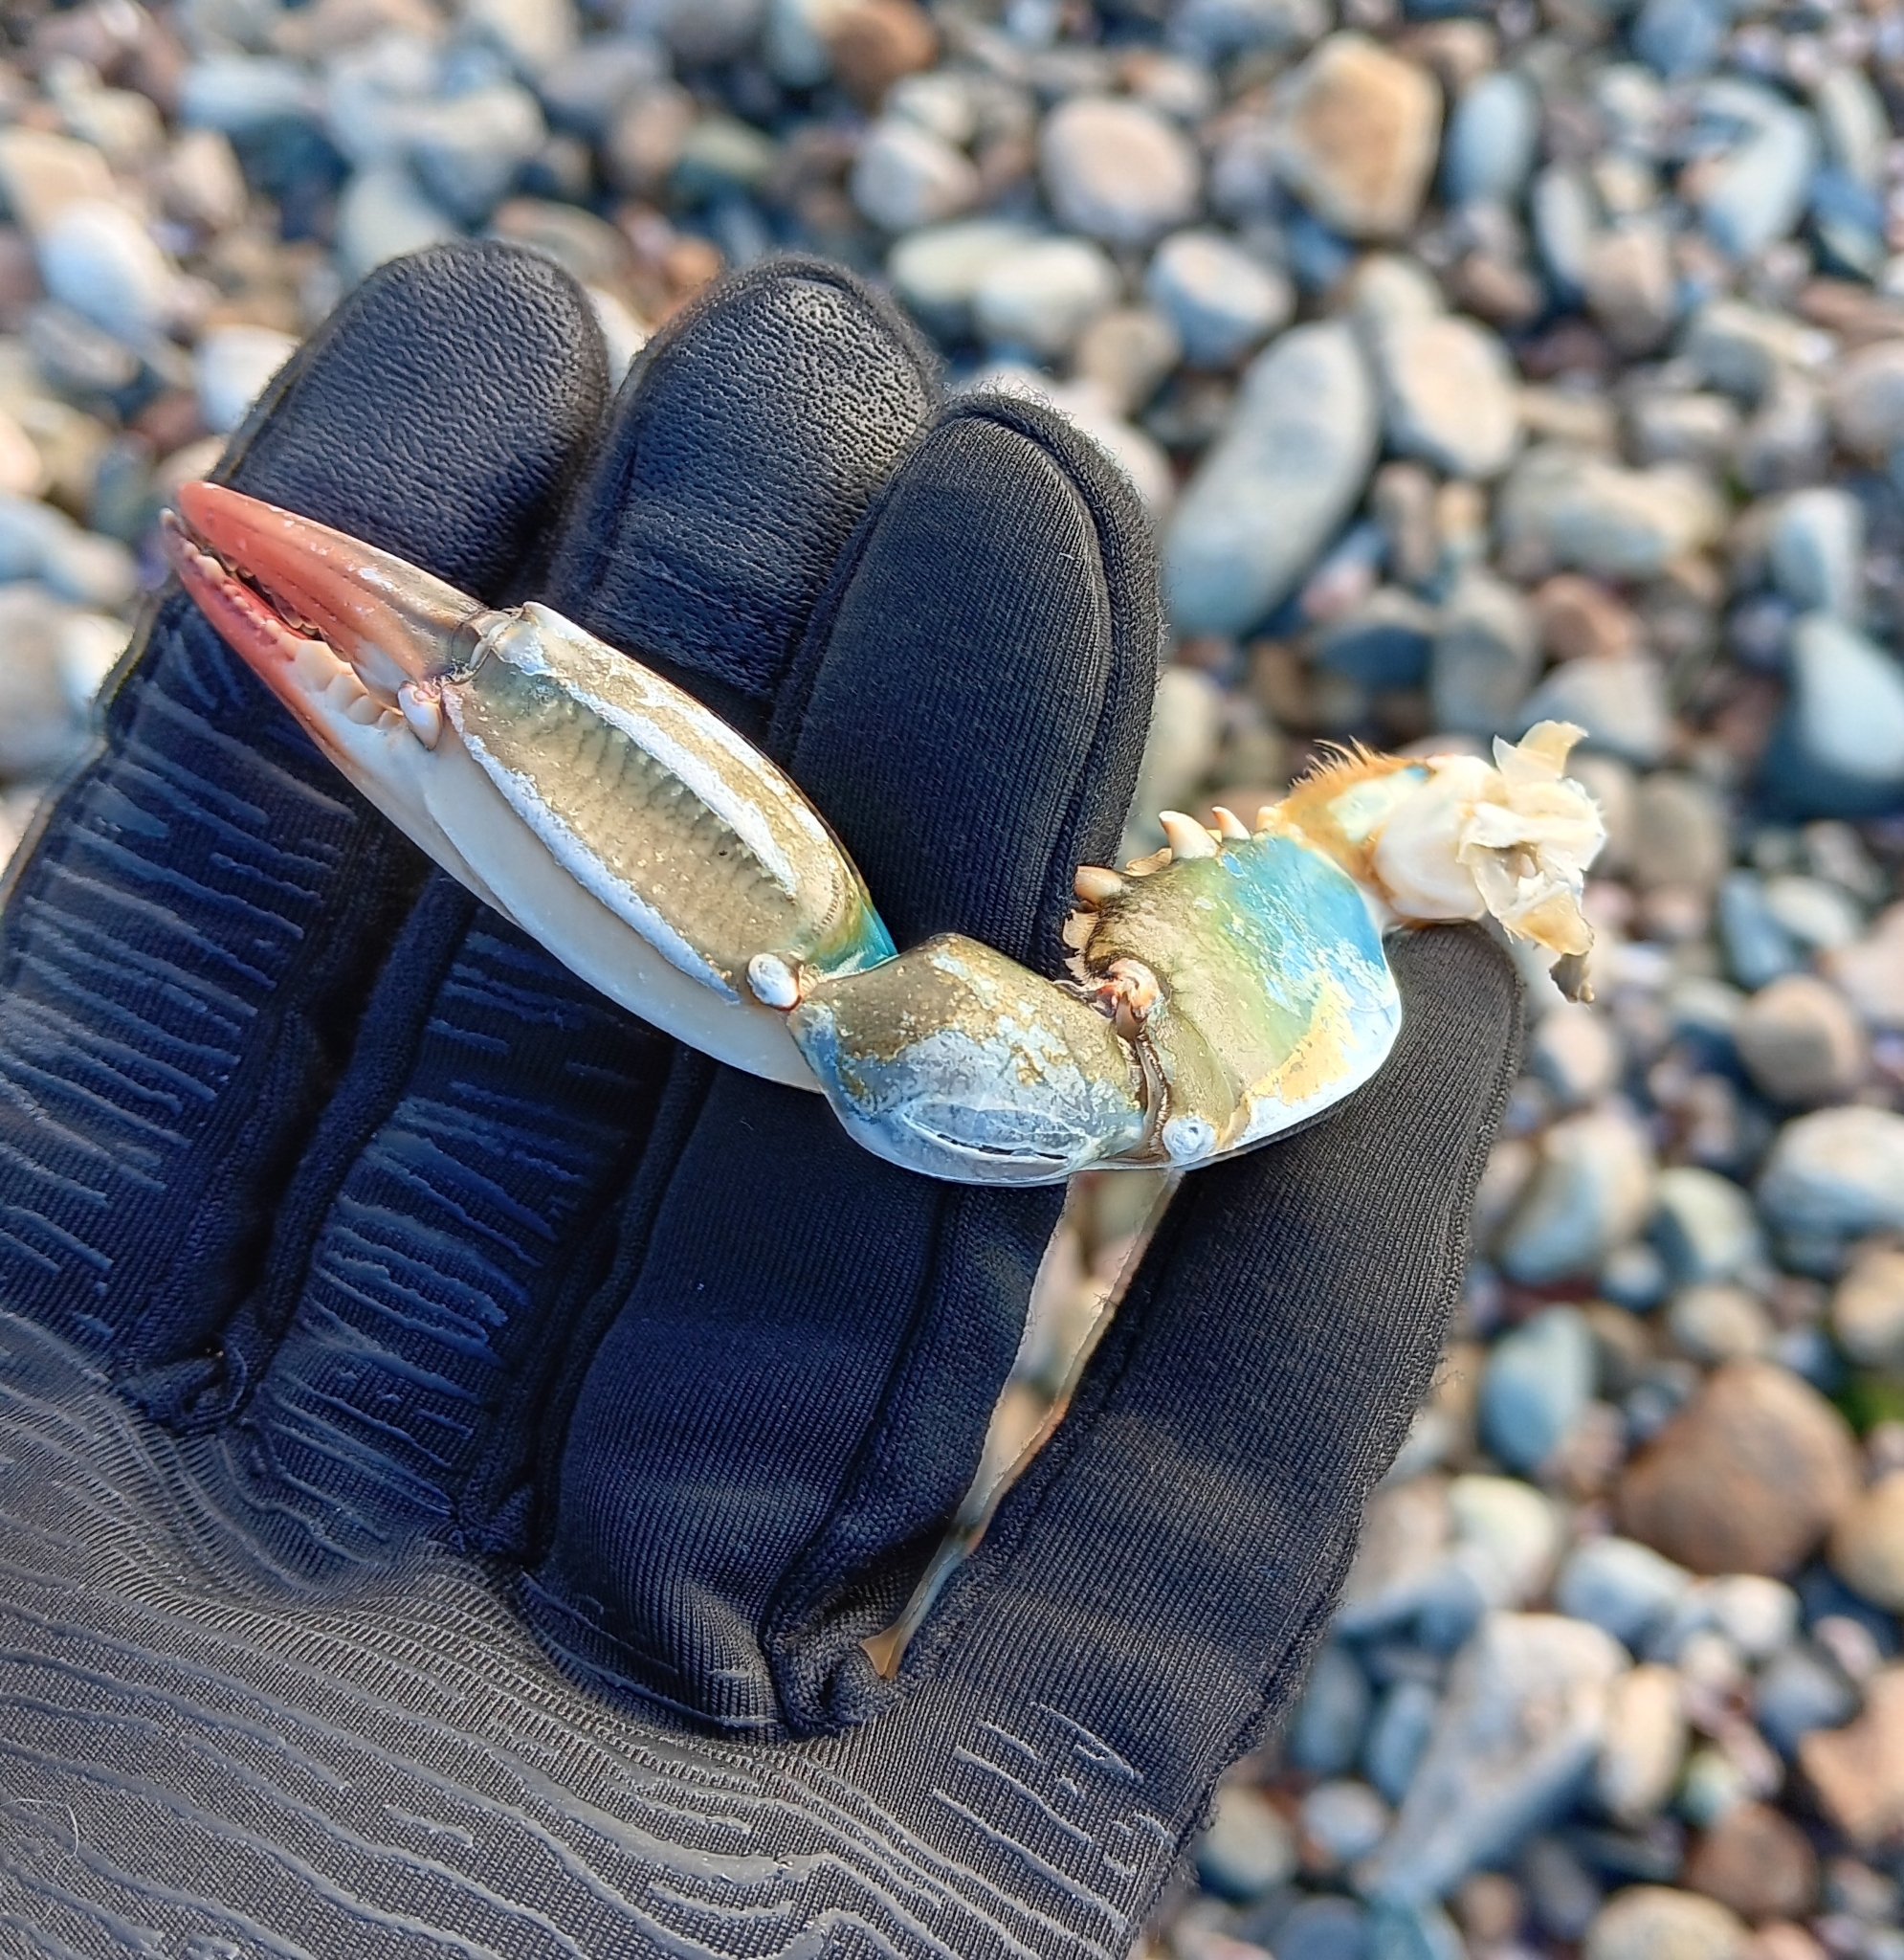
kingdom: Animalia
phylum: Arthropoda
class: Malacostraca
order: Decapoda
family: Portunidae
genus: Callinectes
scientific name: Callinectes sapidus
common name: Blue crab
